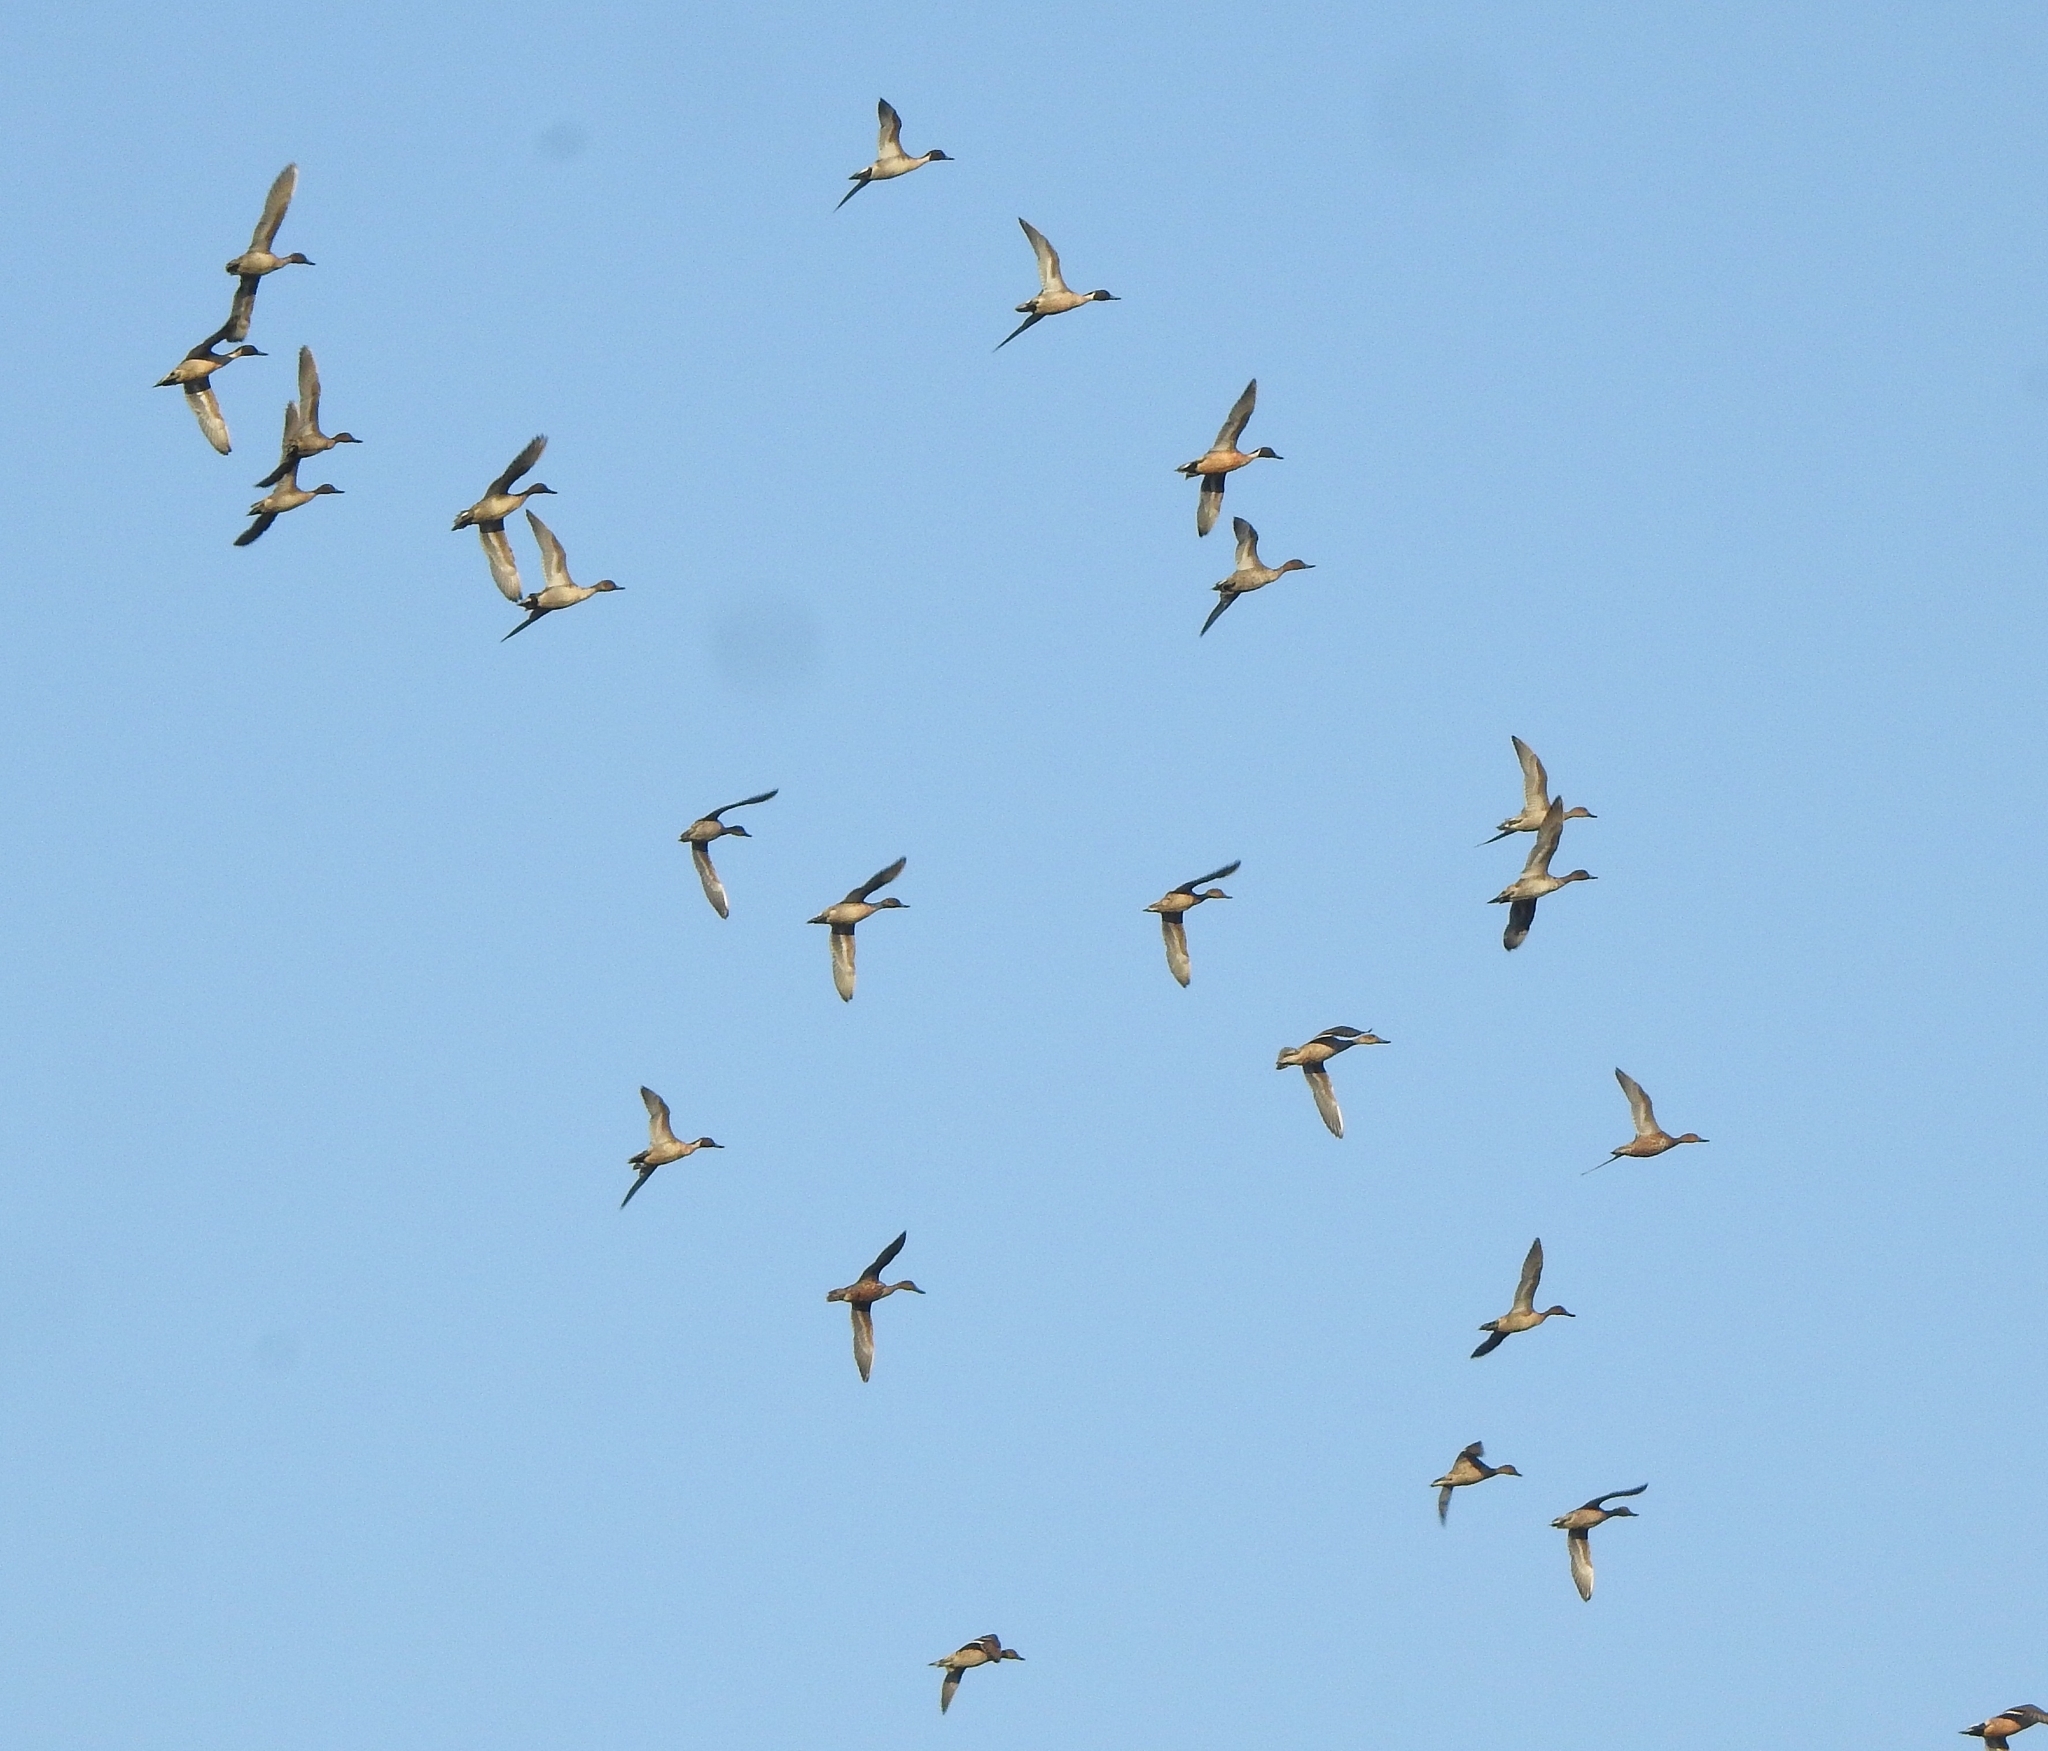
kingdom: Animalia
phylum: Chordata
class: Aves
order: Anseriformes
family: Anatidae
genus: Anas
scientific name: Anas acuta
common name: Northern pintail
